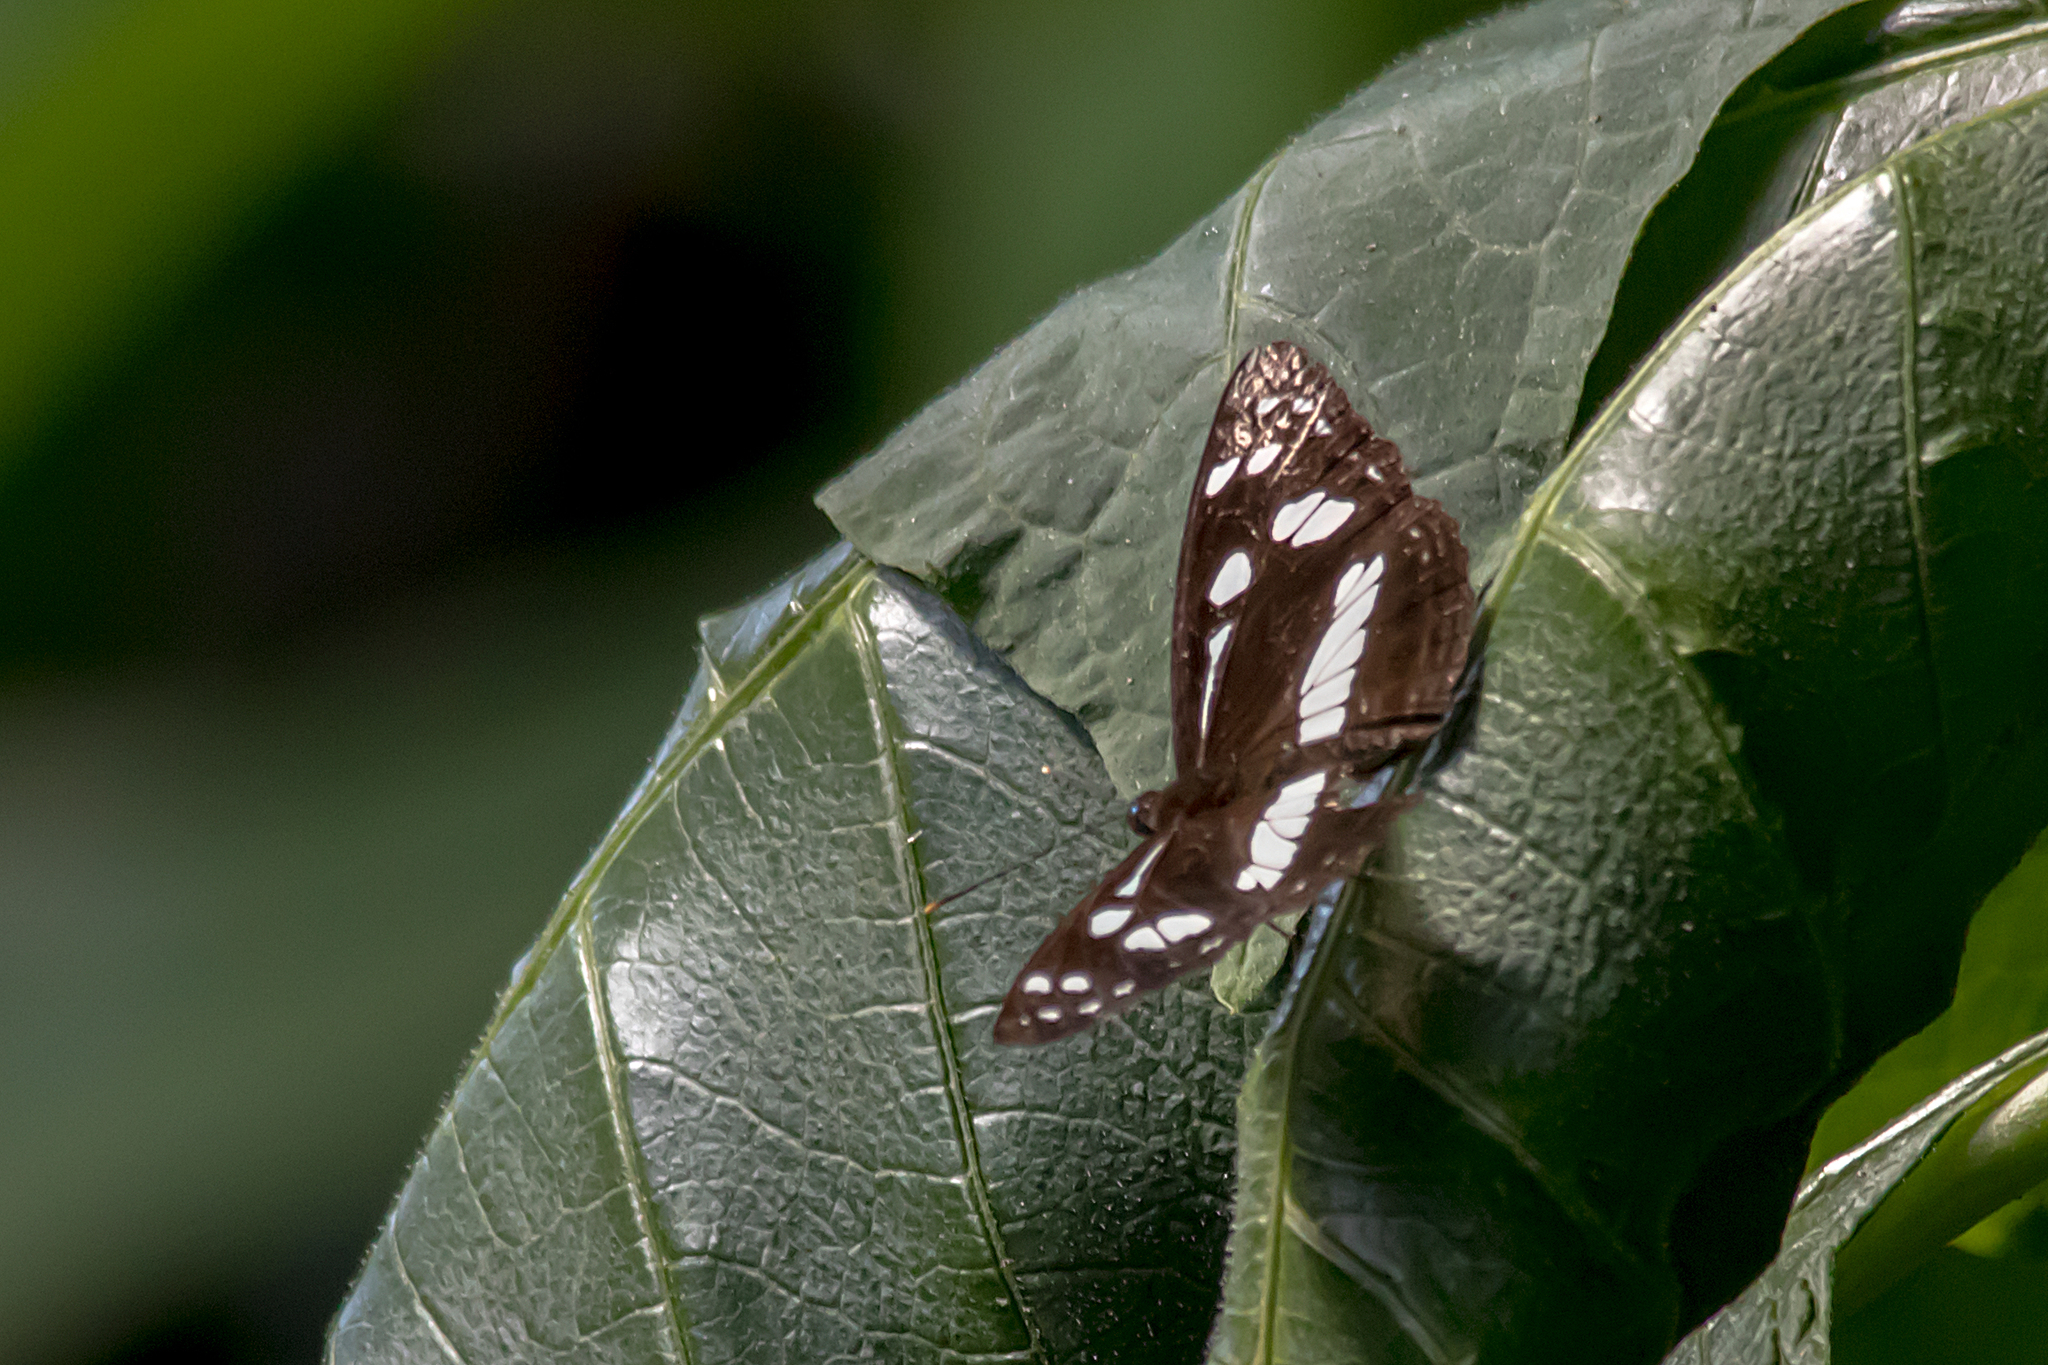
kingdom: Animalia
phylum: Arthropoda
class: Insecta
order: Lepidoptera
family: Nymphalidae
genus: Phaedyma
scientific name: Phaedyma shepherdi
